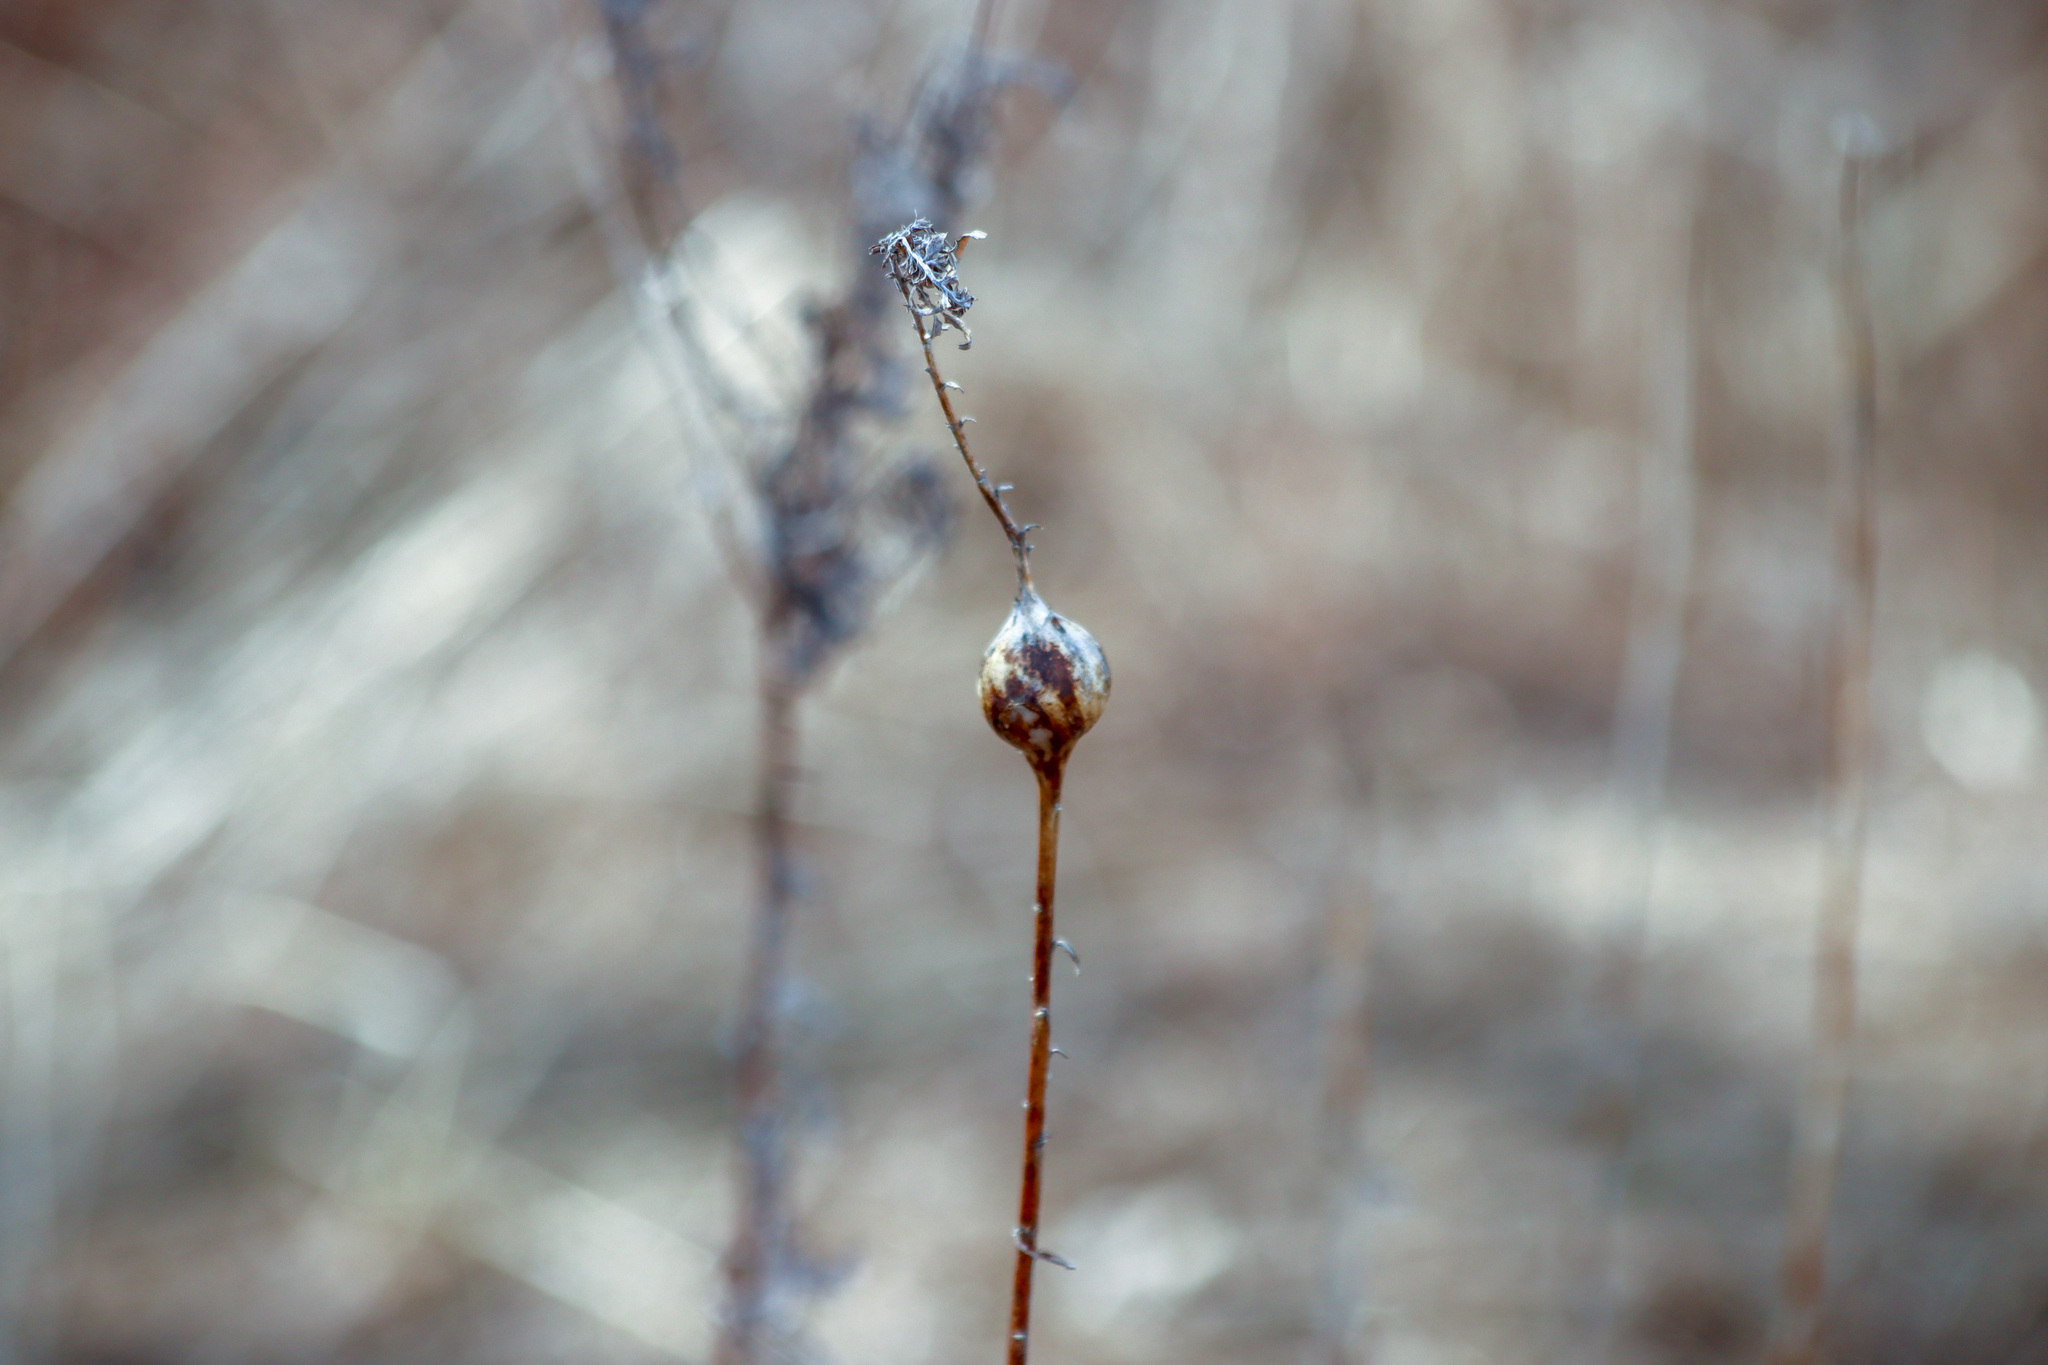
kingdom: Animalia
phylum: Arthropoda
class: Insecta
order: Diptera
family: Tephritidae
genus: Eurosta
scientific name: Eurosta solidaginis
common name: Goldenrod gall fly
